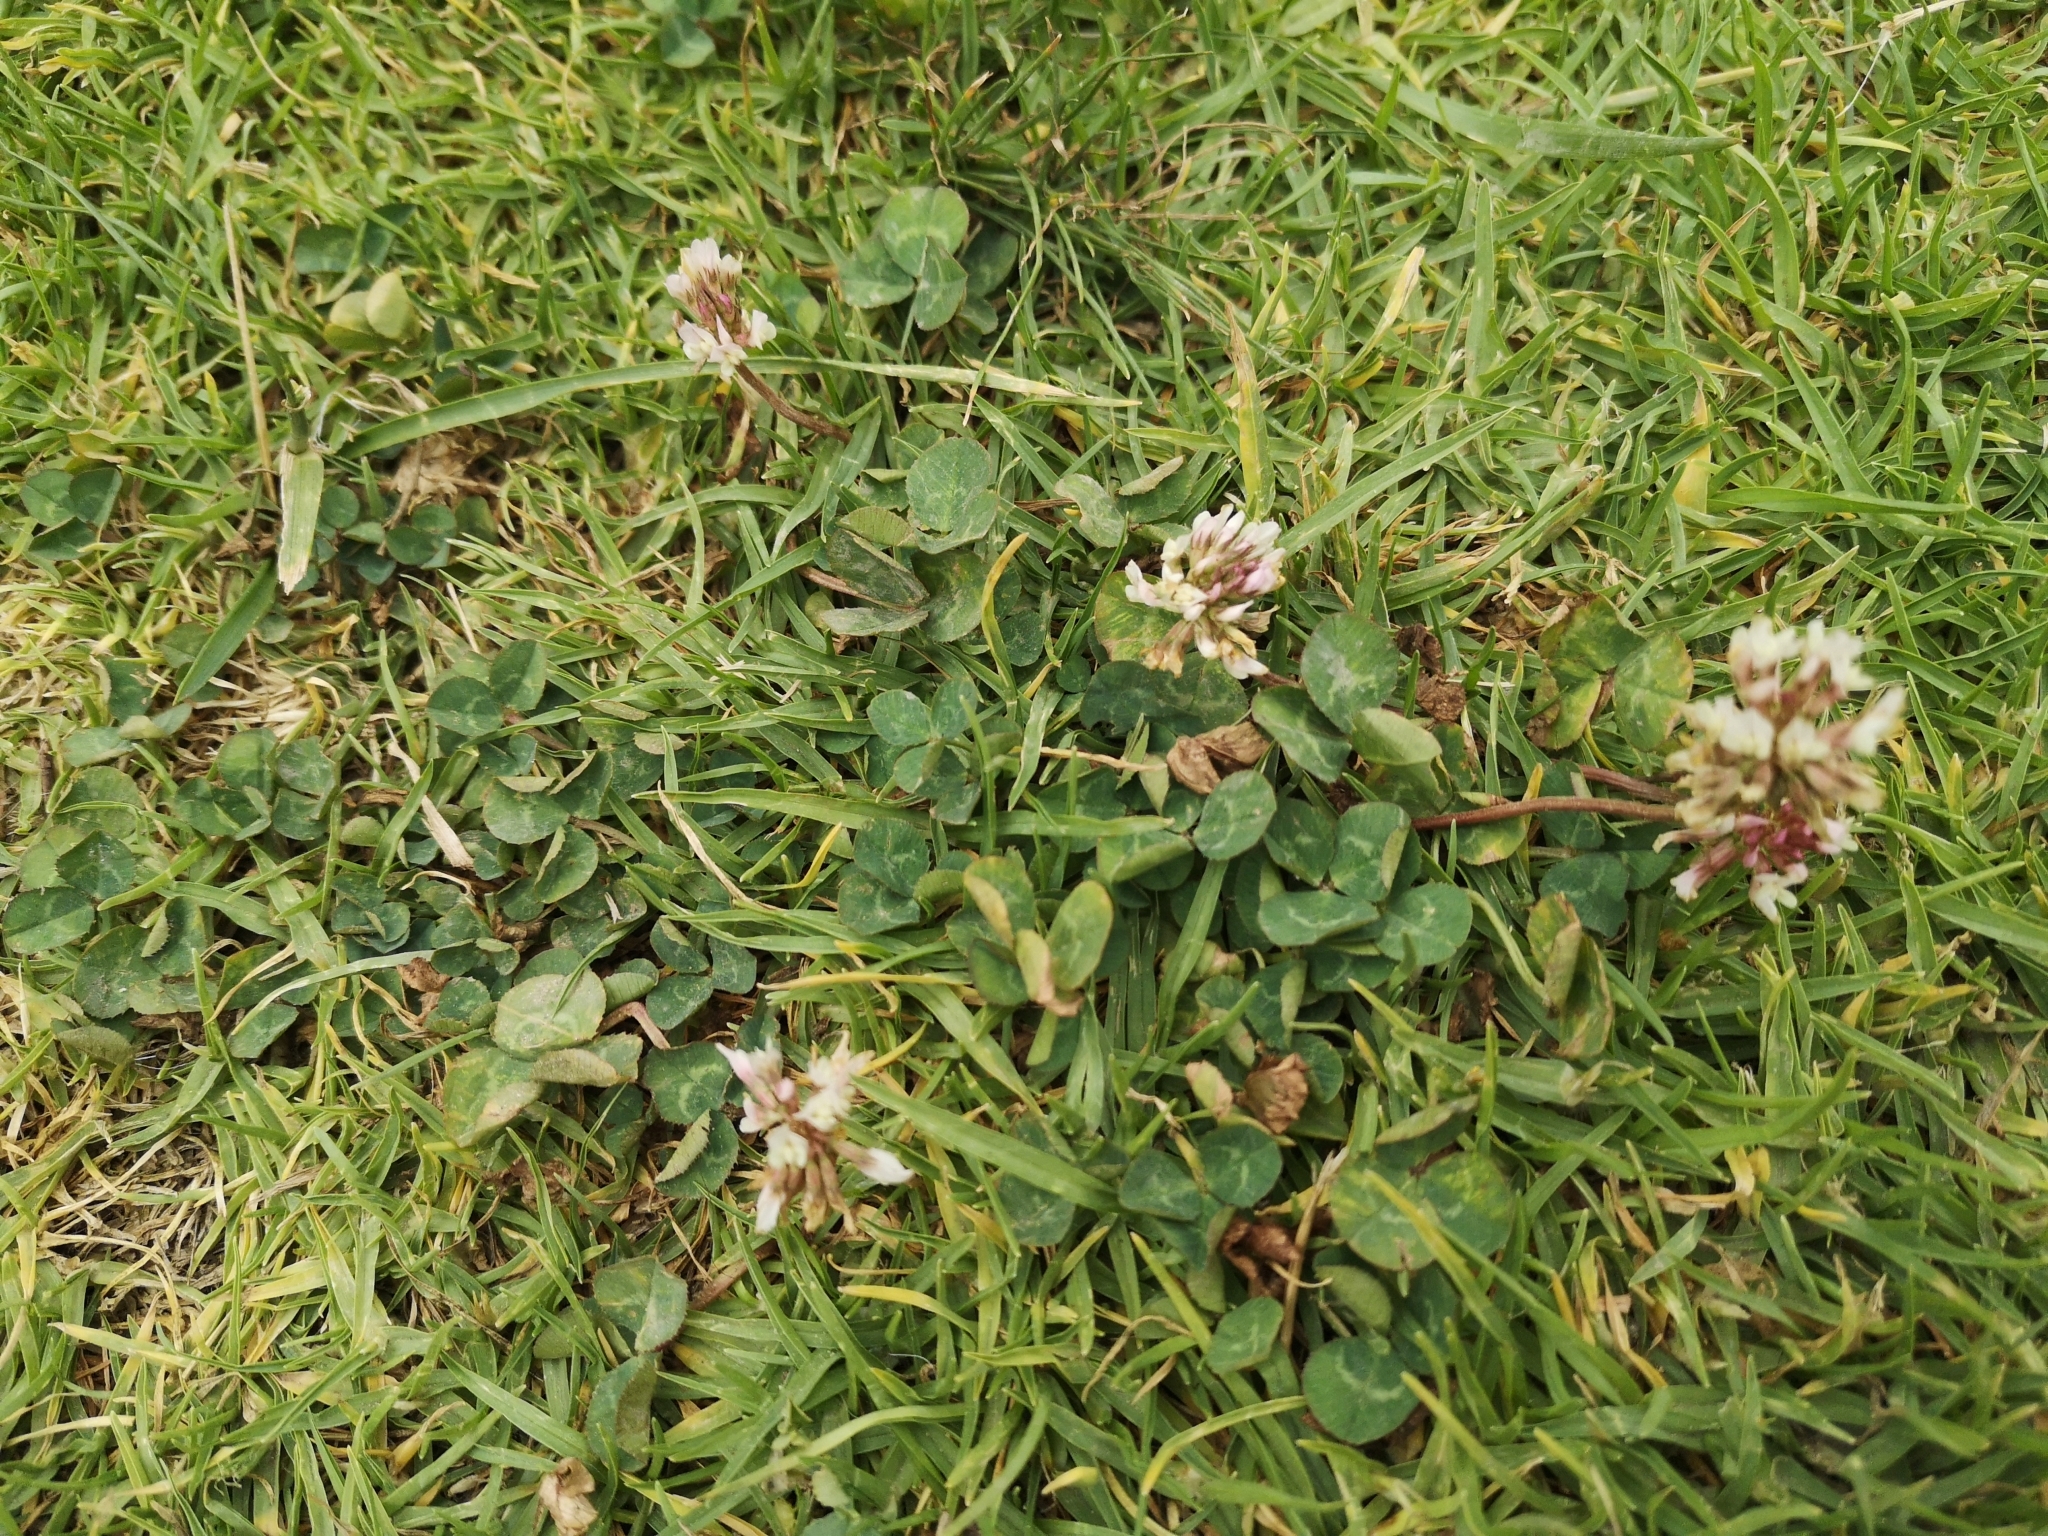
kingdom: Plantae
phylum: Tracheophyta
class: Magnoliopsida
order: Fabales
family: Fabaceae
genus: Trifolium
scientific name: Trifolium repens
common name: White clover
